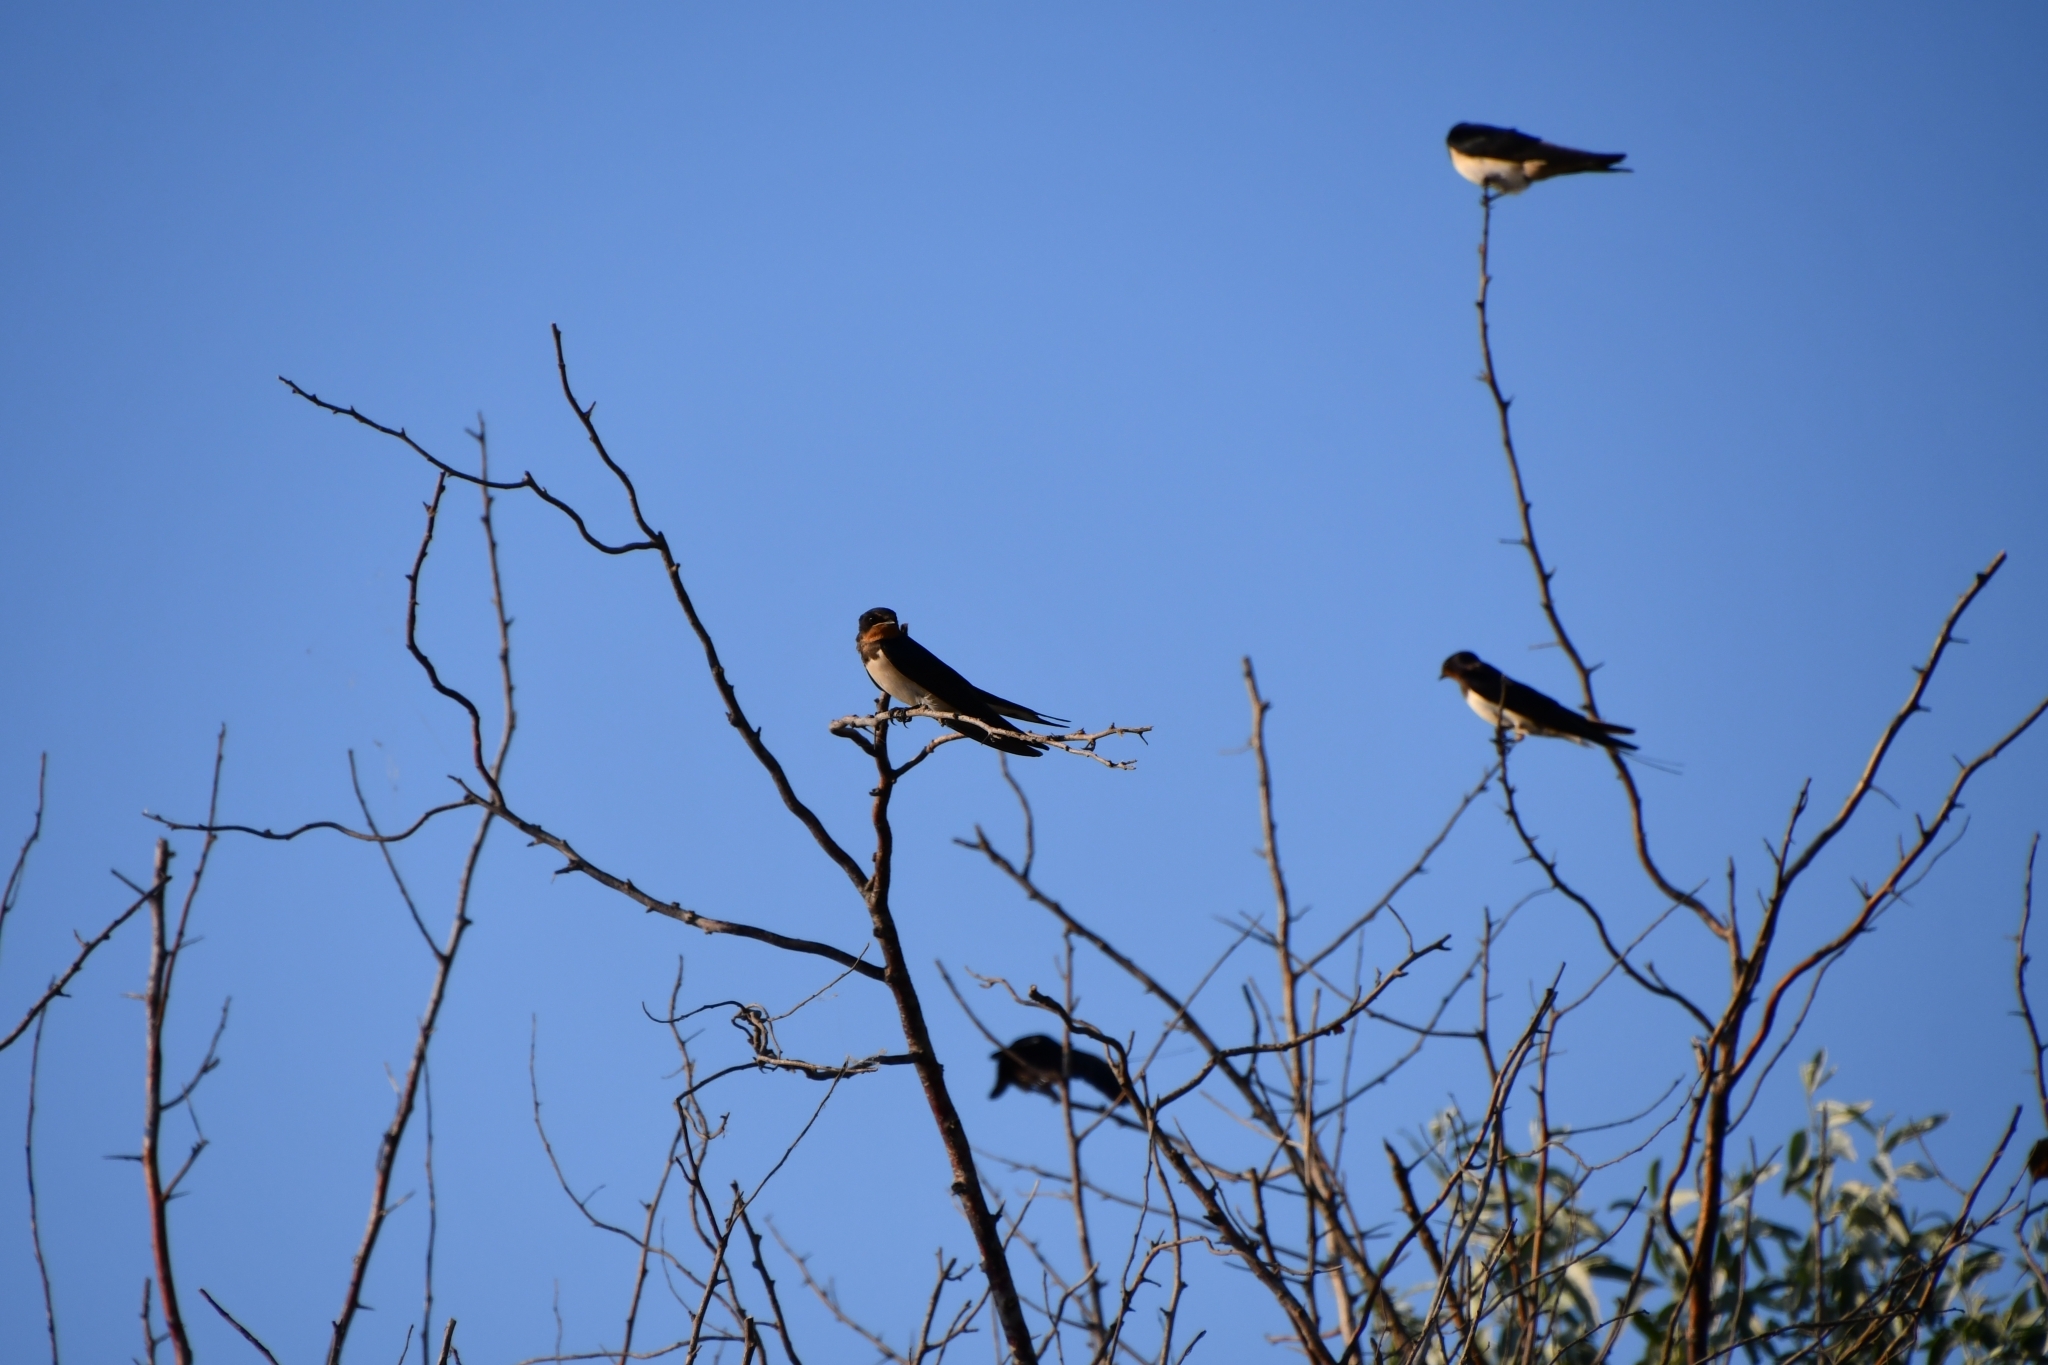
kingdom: Animalia
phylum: Chordata
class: Aves
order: Passeriformes
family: Hirundinidae
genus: Hirundo
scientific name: Hirundo rustica
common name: Barn swallow
